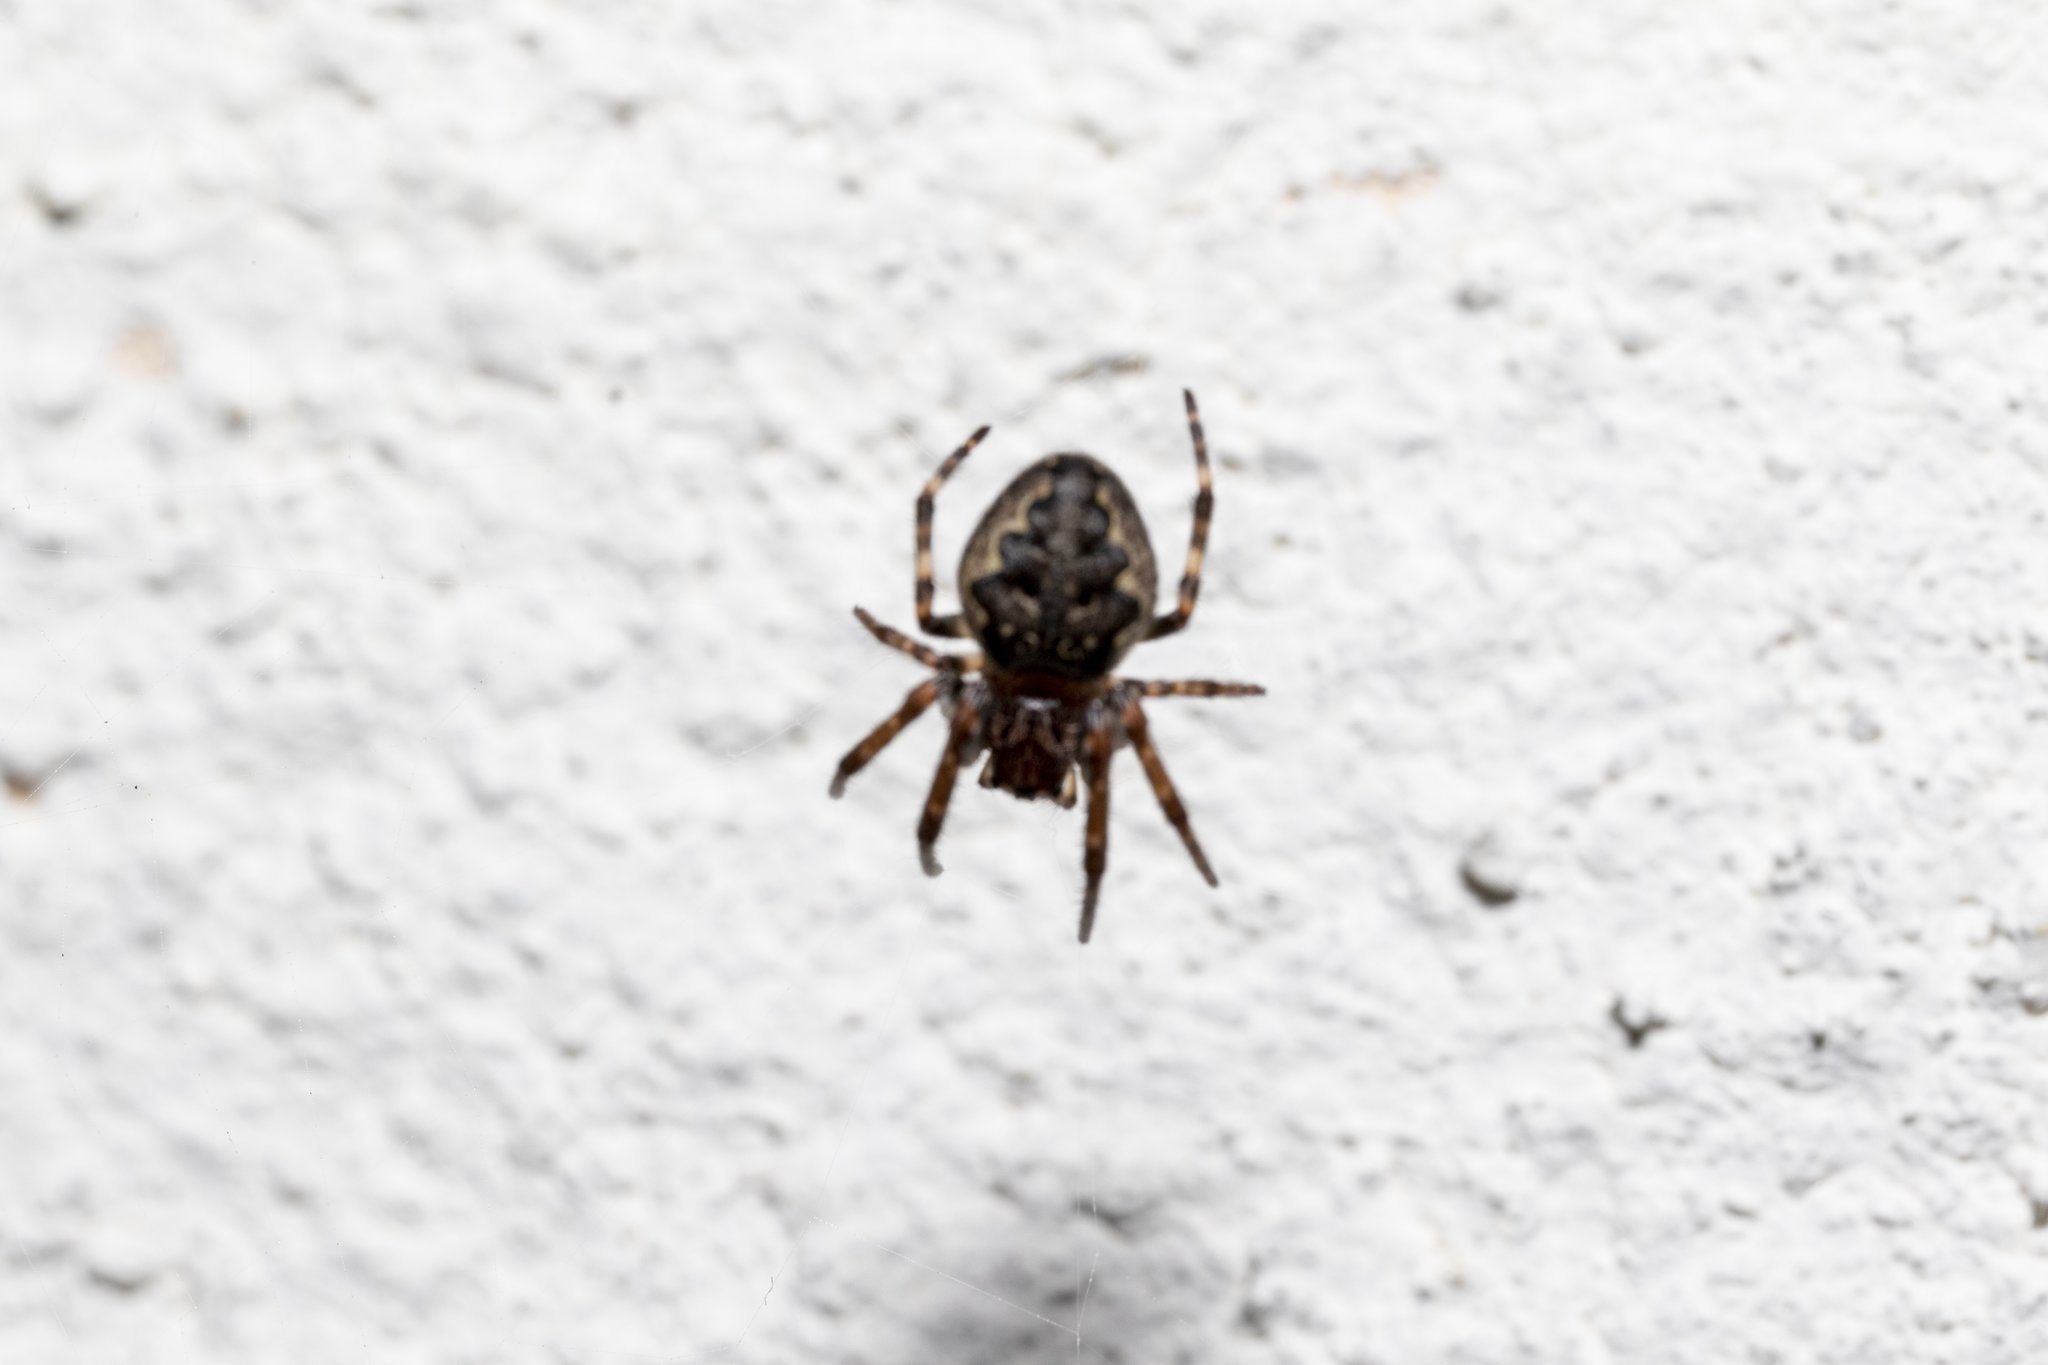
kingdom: Animalia
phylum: Arthropoda
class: Arachnida
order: Araneae
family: Araneidae
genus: Nuctenea
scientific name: Nuctenea umbratica
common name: Toad spider
